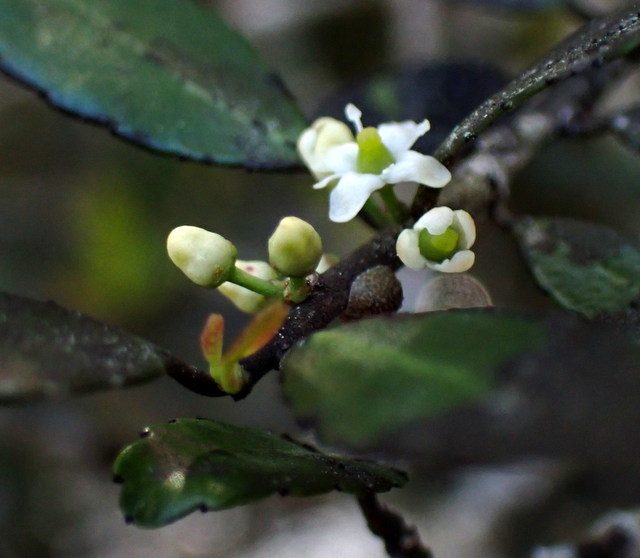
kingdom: Plantae
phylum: Tracheophyta
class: Magnoliopsida
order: Aquifoliales
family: Aquifoliaceae
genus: Ilex
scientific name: Ilex vomitoria
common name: Yaupon holly
